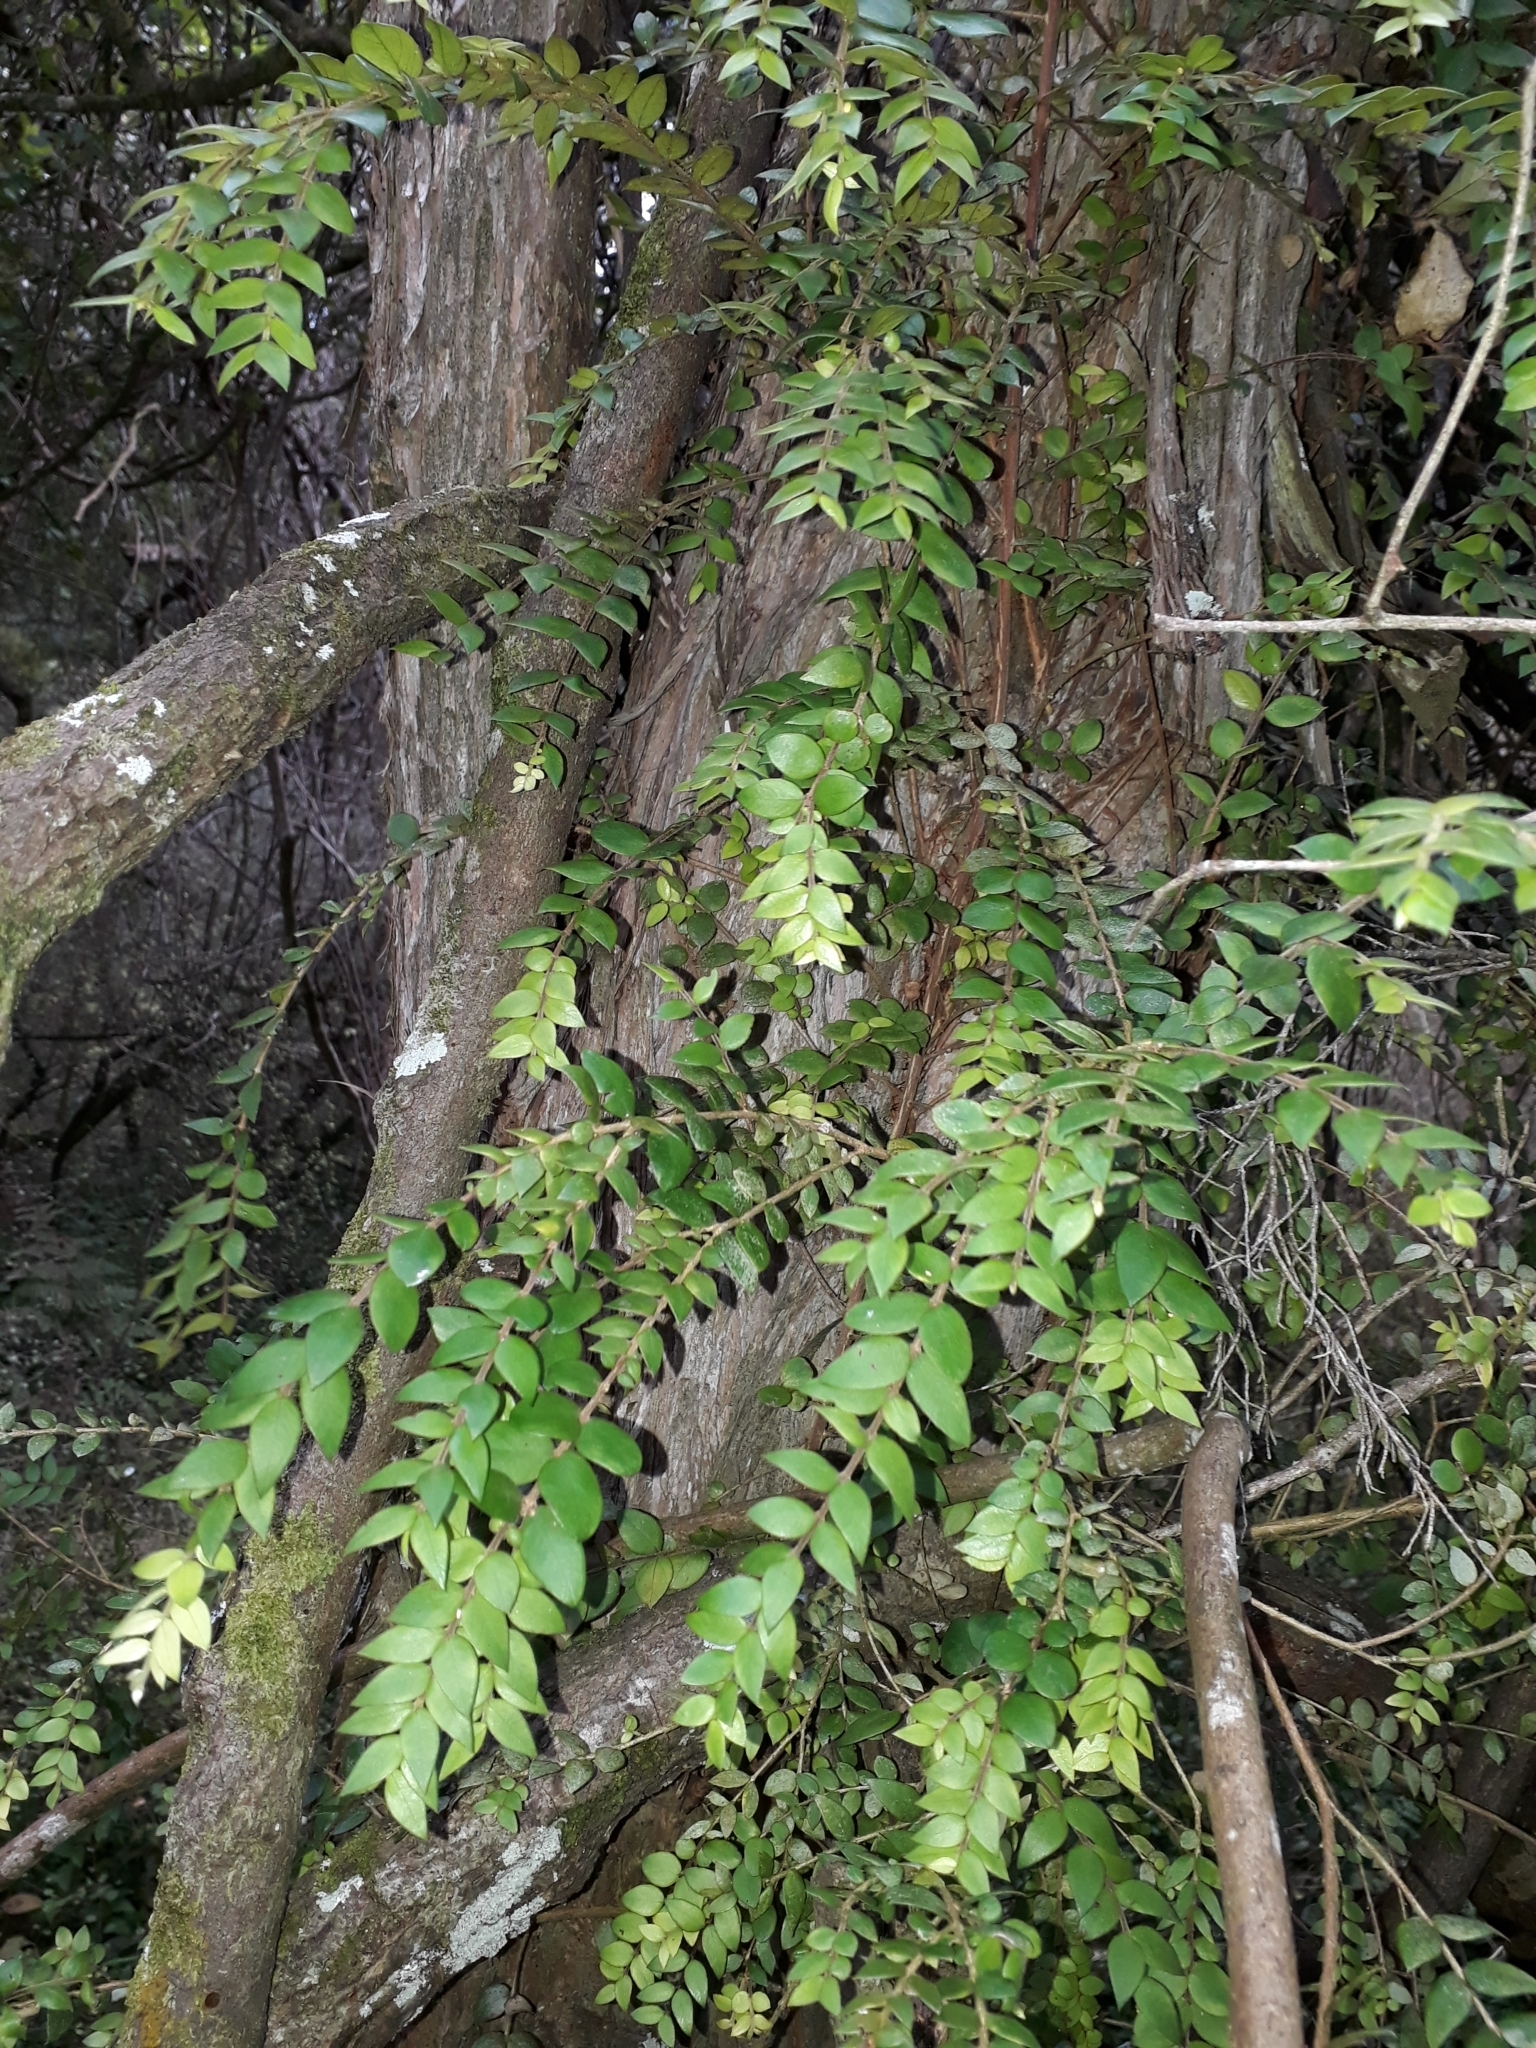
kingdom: Plantae
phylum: Tracheophyta
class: Magnoliopsida
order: Myrtales
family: Myrtaceae
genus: Metrosideros
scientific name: Metrosideros colensoi
